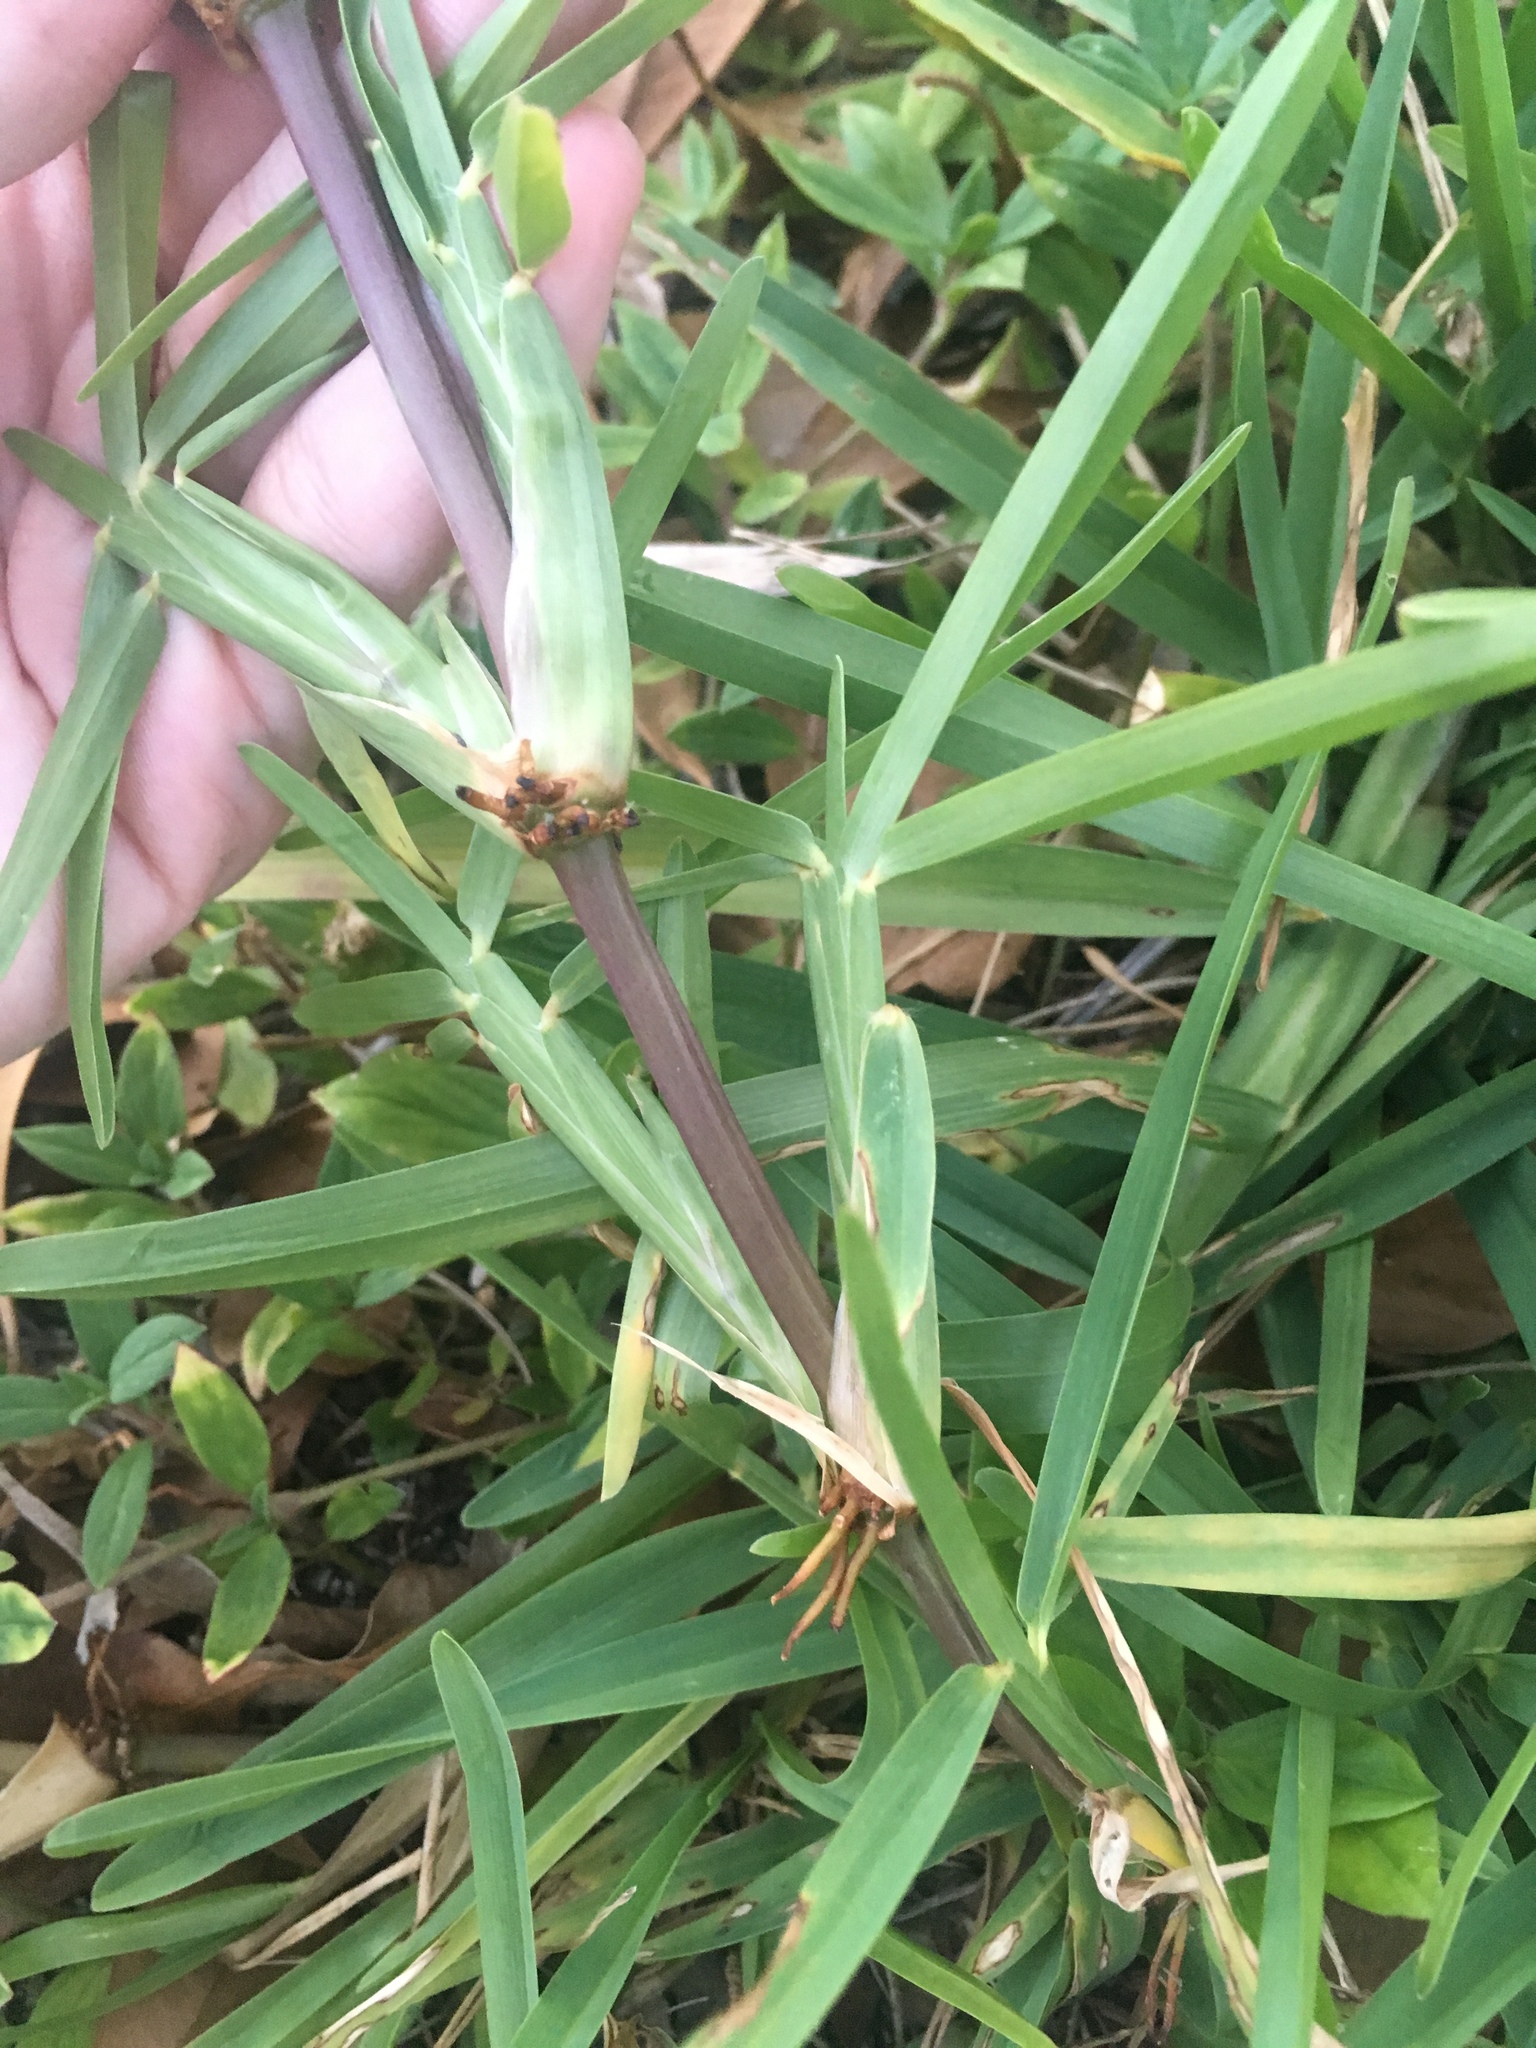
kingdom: Plantae
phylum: Tracheophyta
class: Liliopsida
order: Poales
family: Poaceae
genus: Stenotaphrum
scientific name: Stenotaphrum secundatum
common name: St. augustine grass
